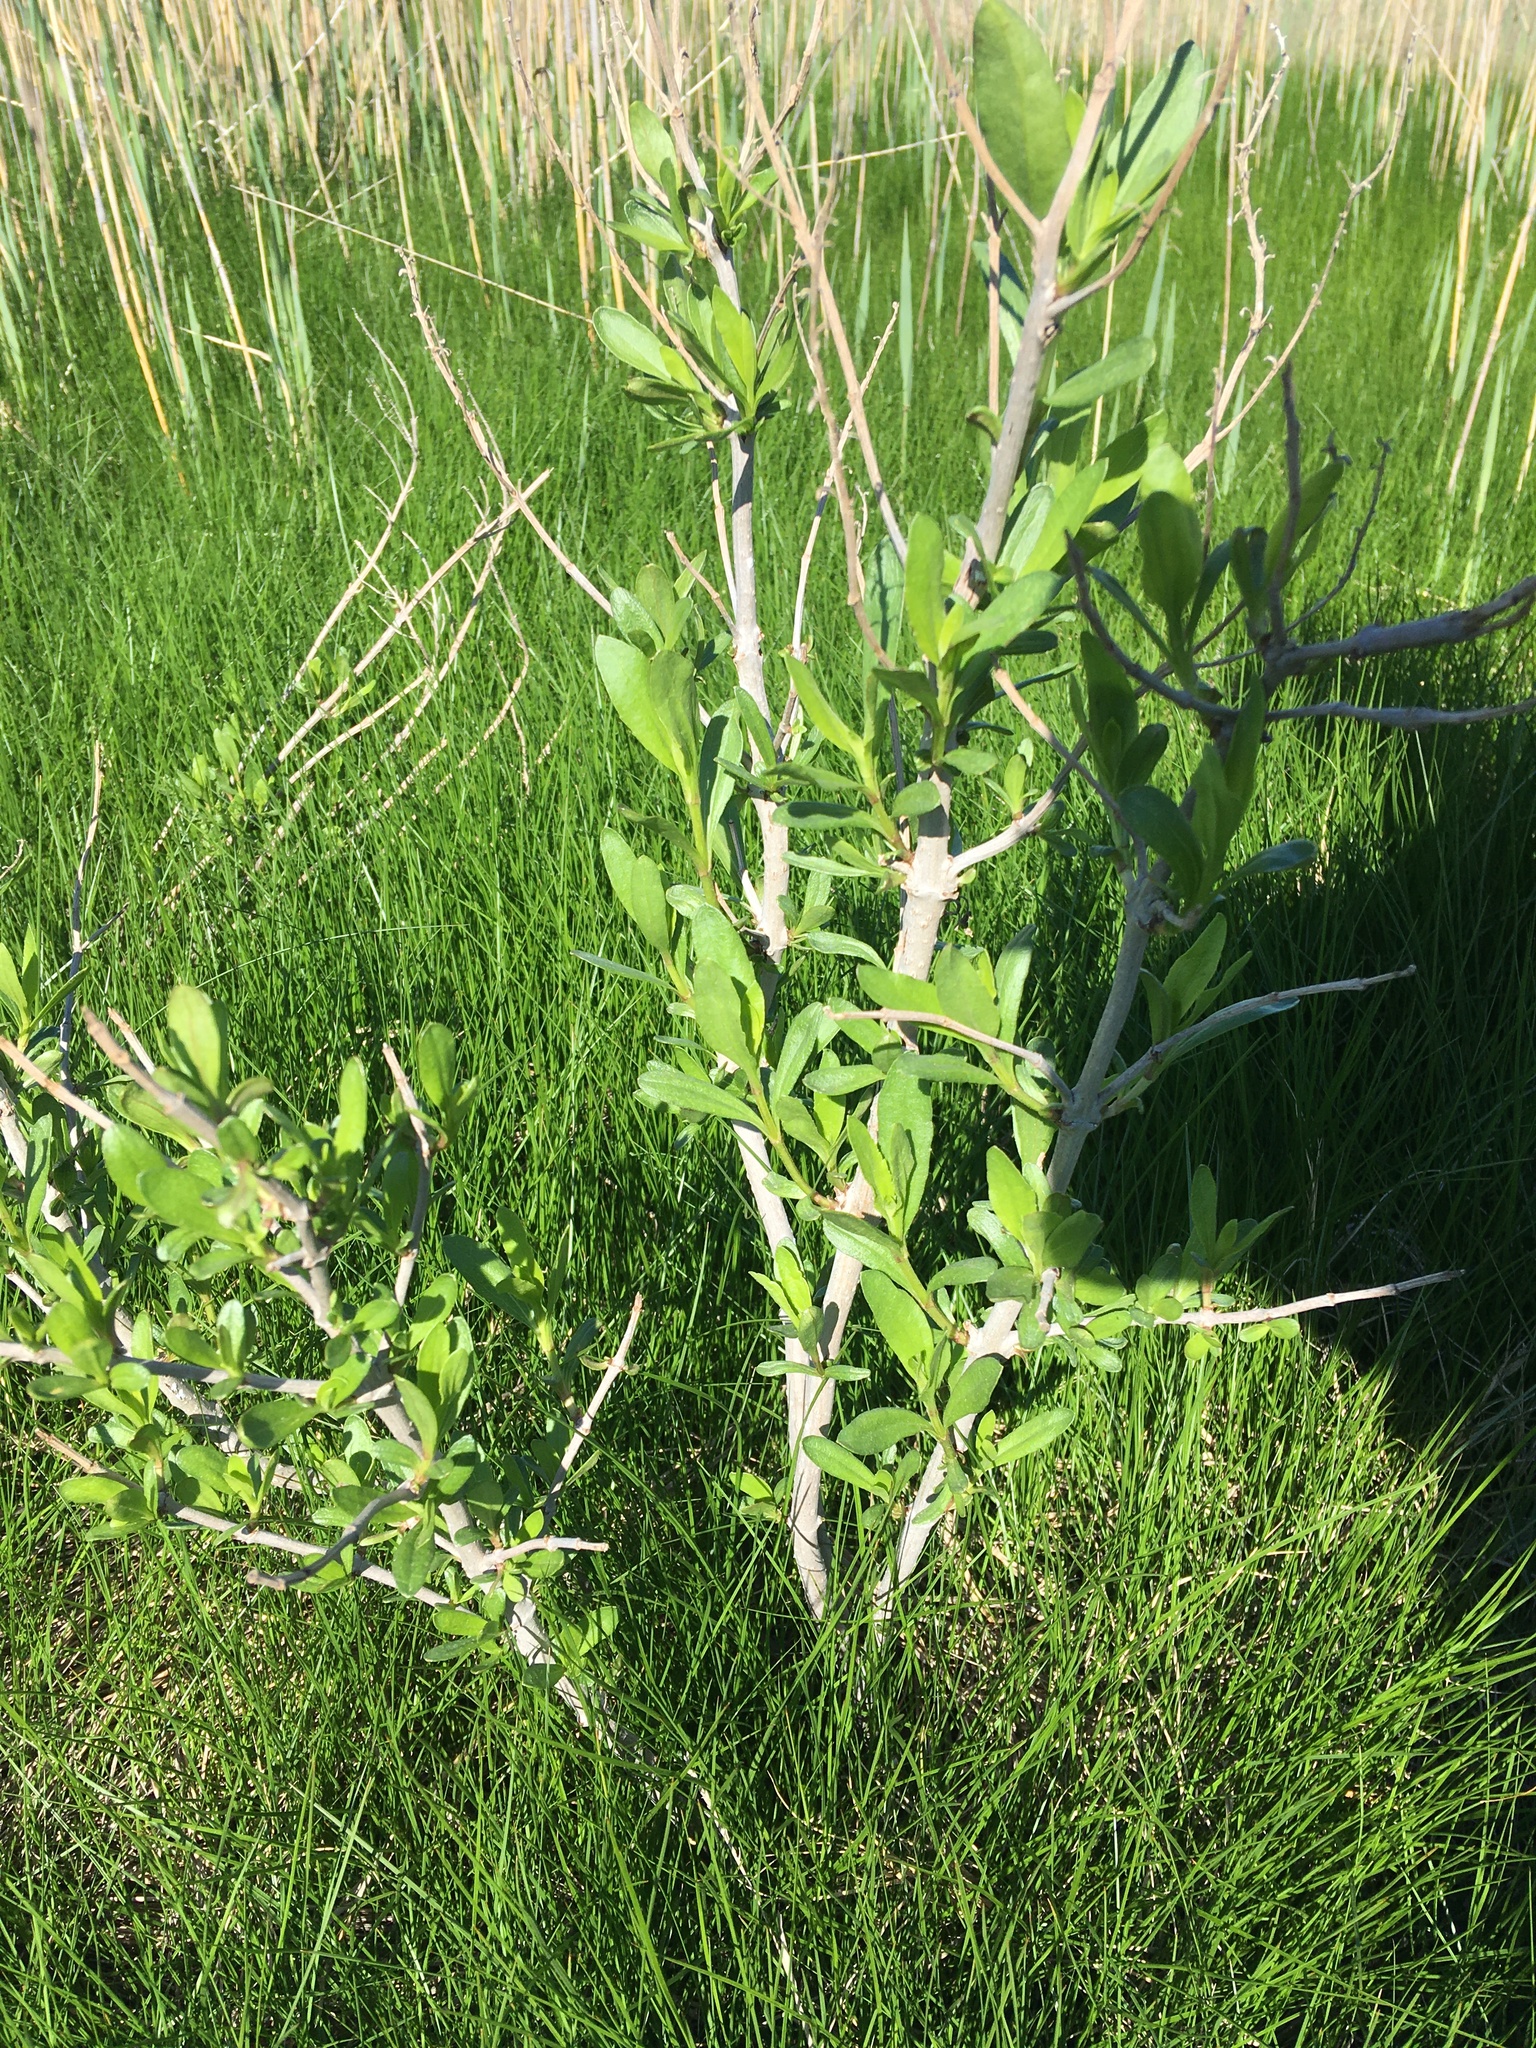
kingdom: Plantae
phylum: Tracheophyta
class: Magnoliopsida
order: Asterales
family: Asteraceae
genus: Iva
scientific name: Iva frutescens
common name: Big-leaved marsh-elder
